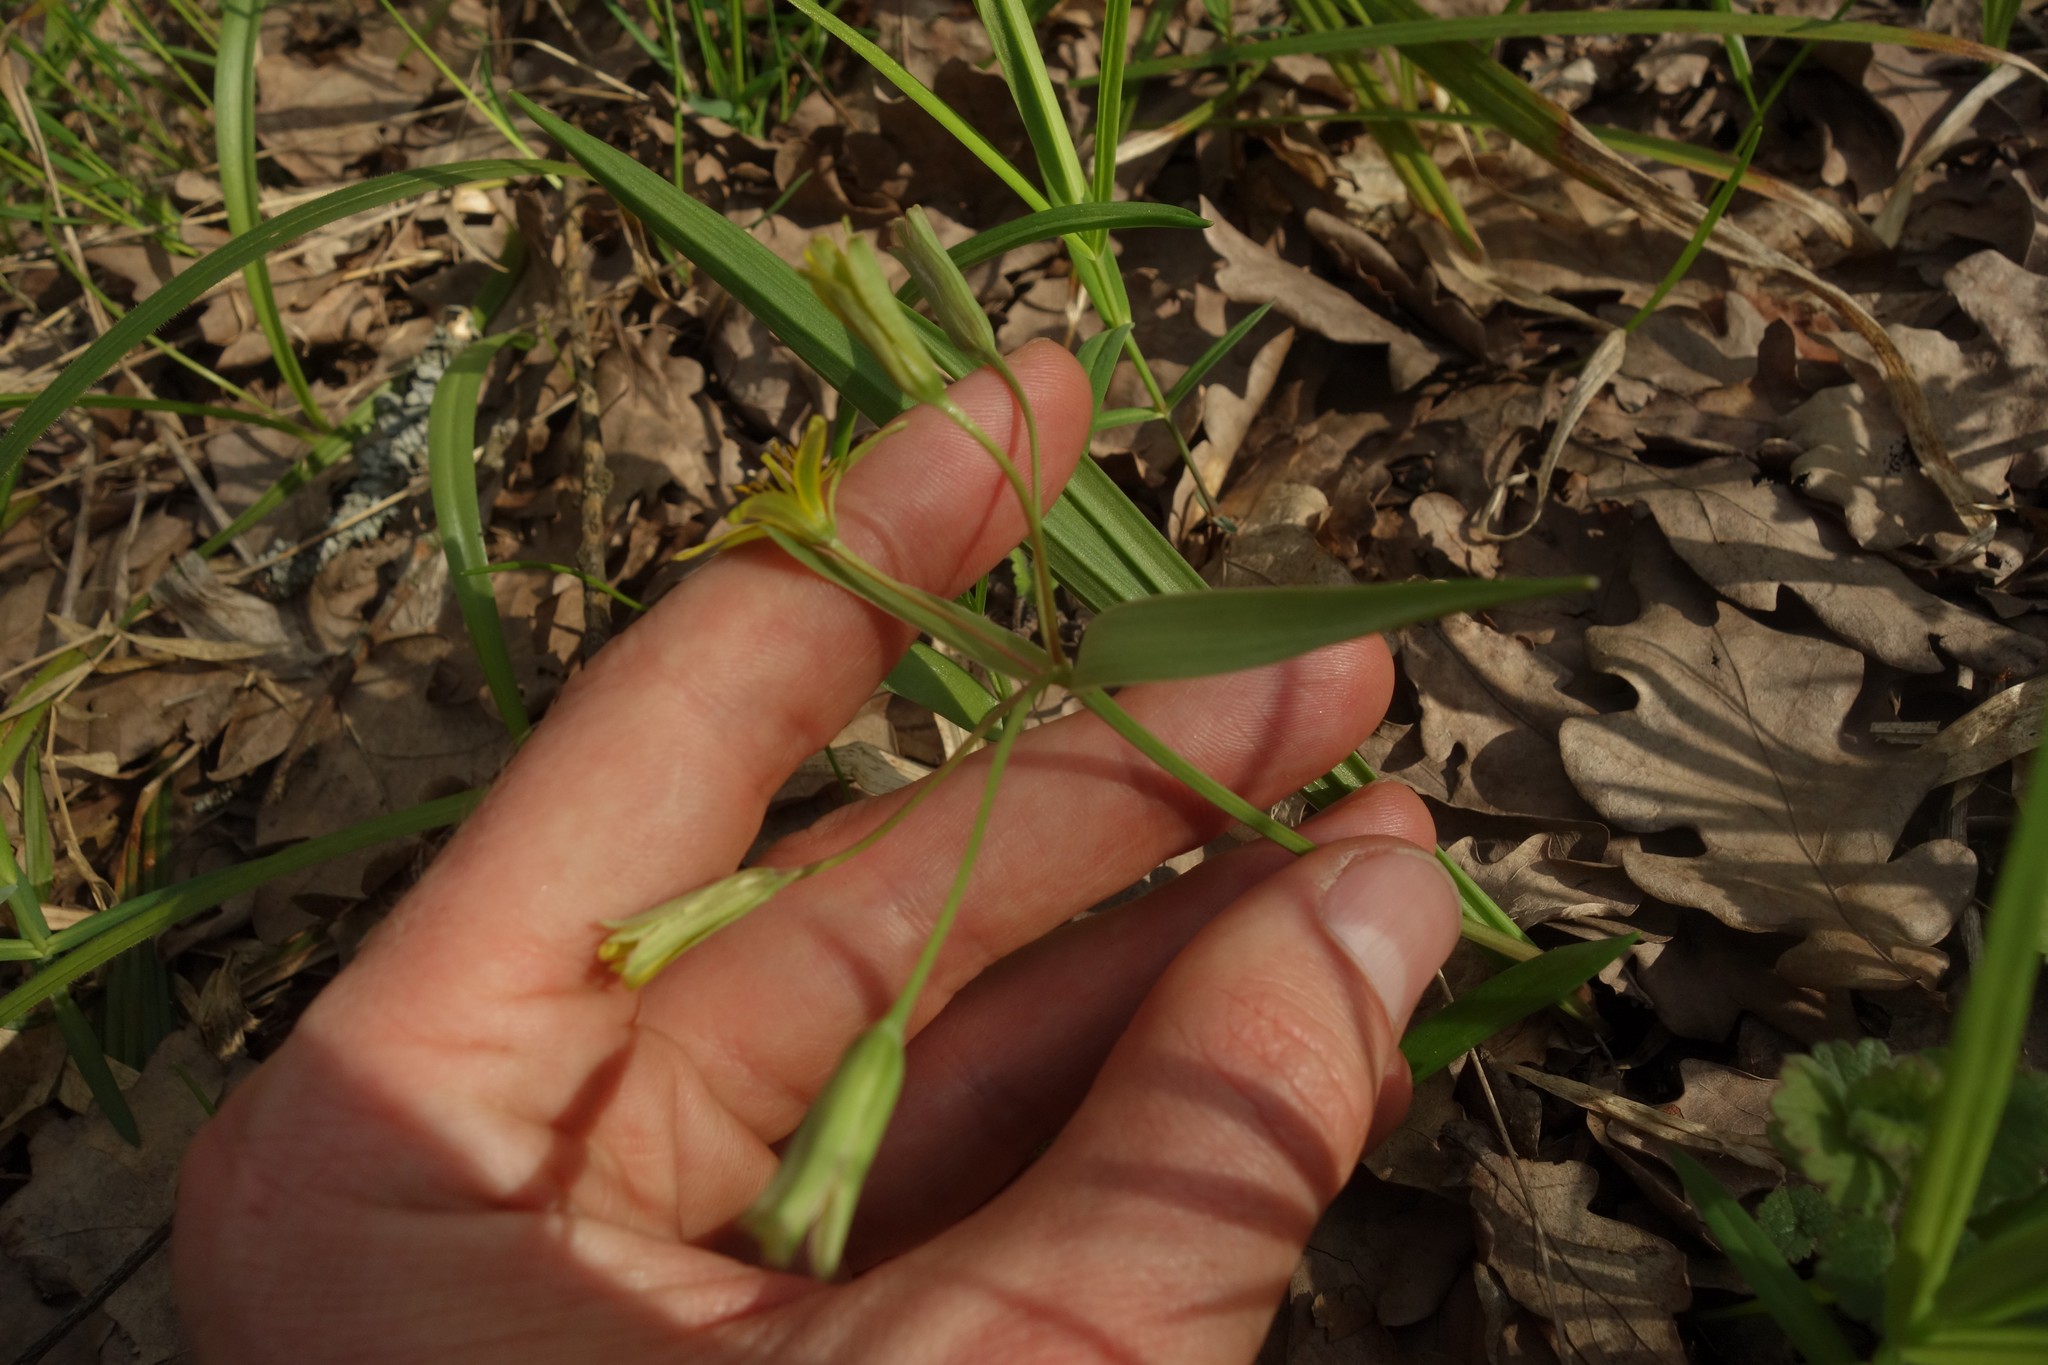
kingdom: Plantae
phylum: Tracheophyta
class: Liliopsida
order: Liliales
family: Liliaceae
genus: Gagea
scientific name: Gagea lutea
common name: Yellow star-of-bethlehem
